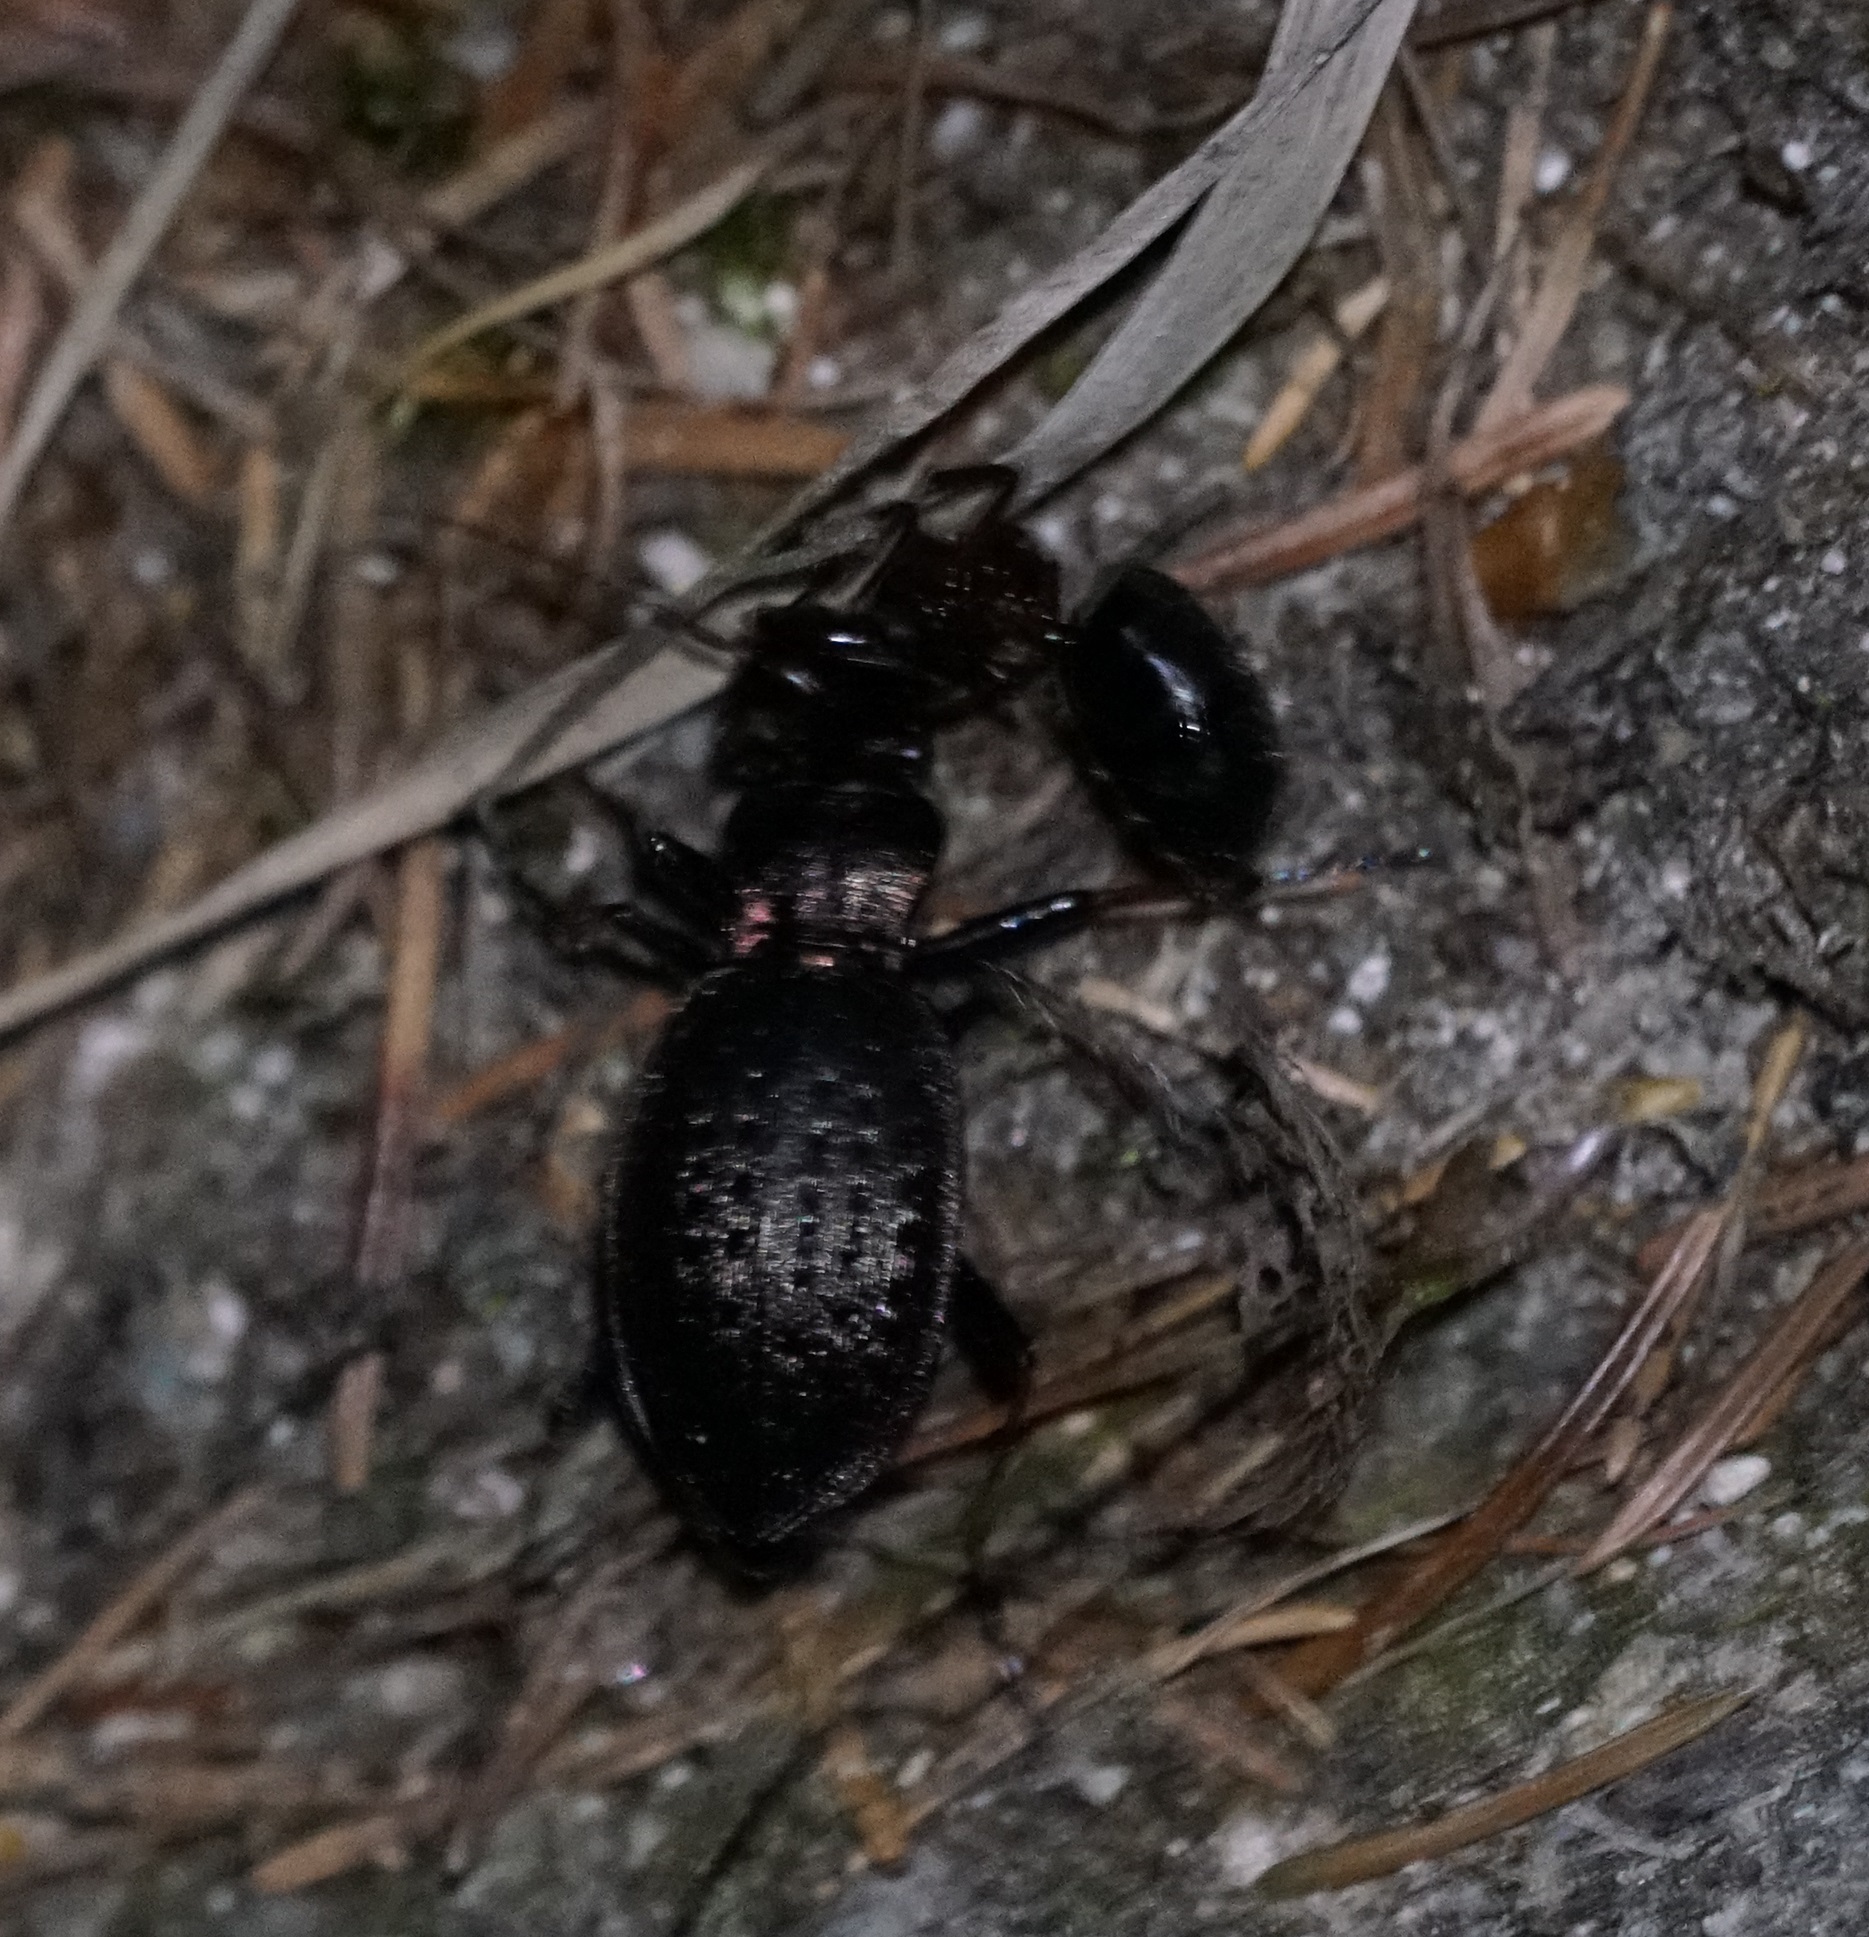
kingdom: Animalia
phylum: Arthropoda
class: Insecta
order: Coleoptera
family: Carabidae
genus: Carabus
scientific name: Carabus linnaei
